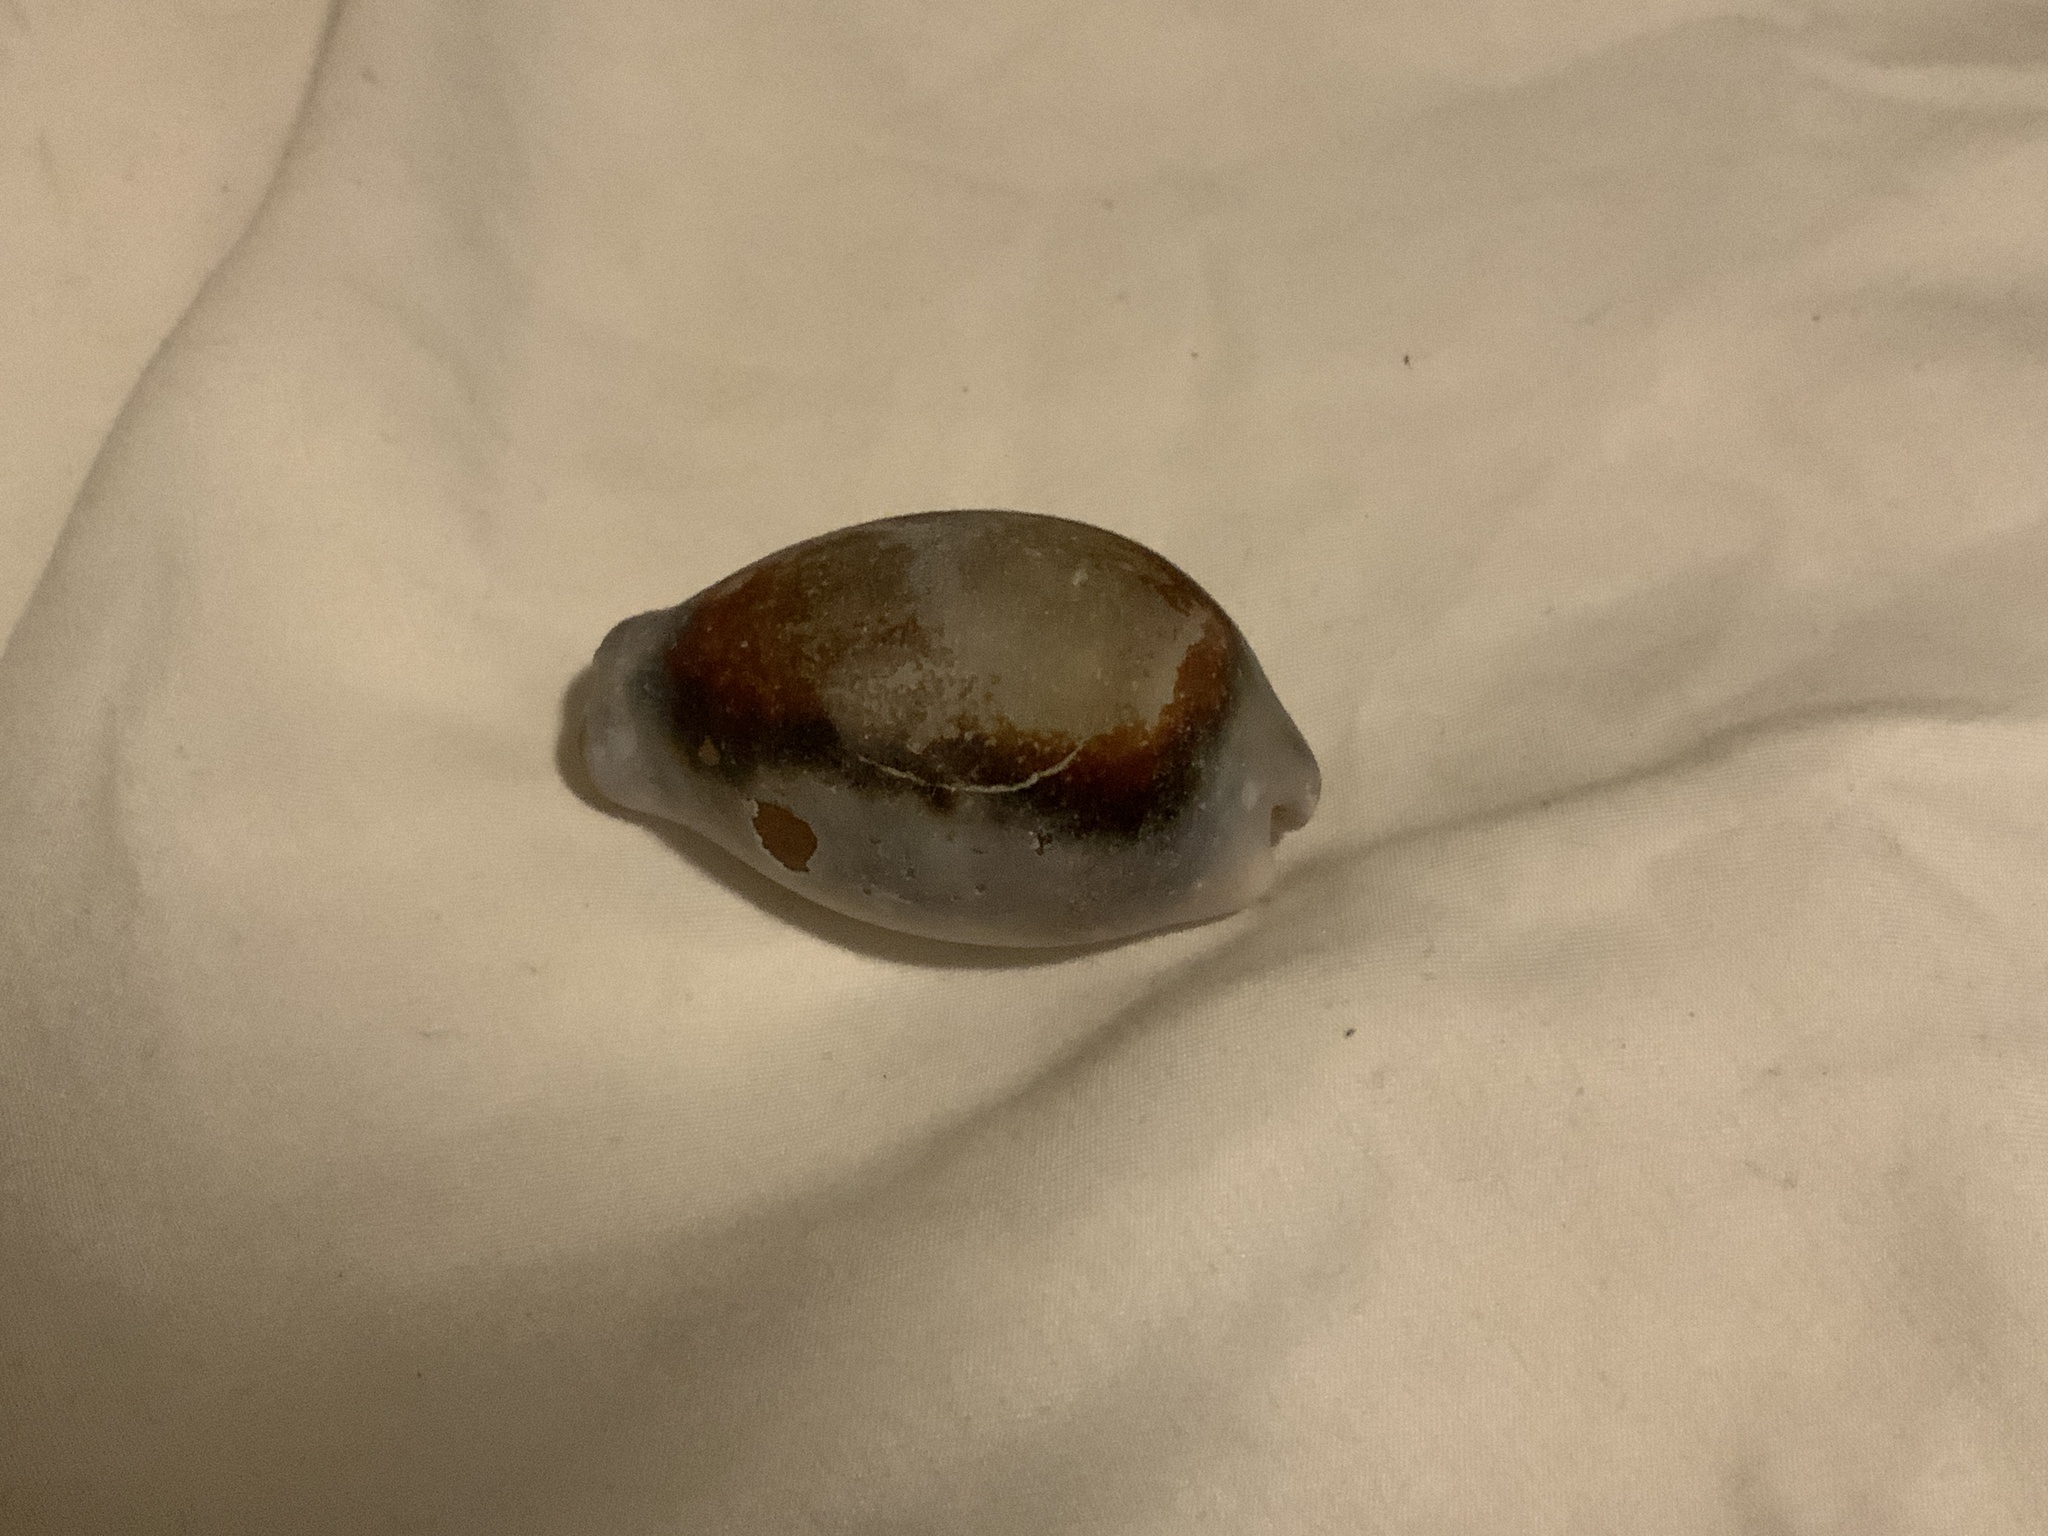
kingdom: Animalia
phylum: Mollusca
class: Gastropoda
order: Littorinimorpha
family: Cypraeidae
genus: Neobernaya
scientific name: Neobernaya spadicea
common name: Chestnut cowrie
